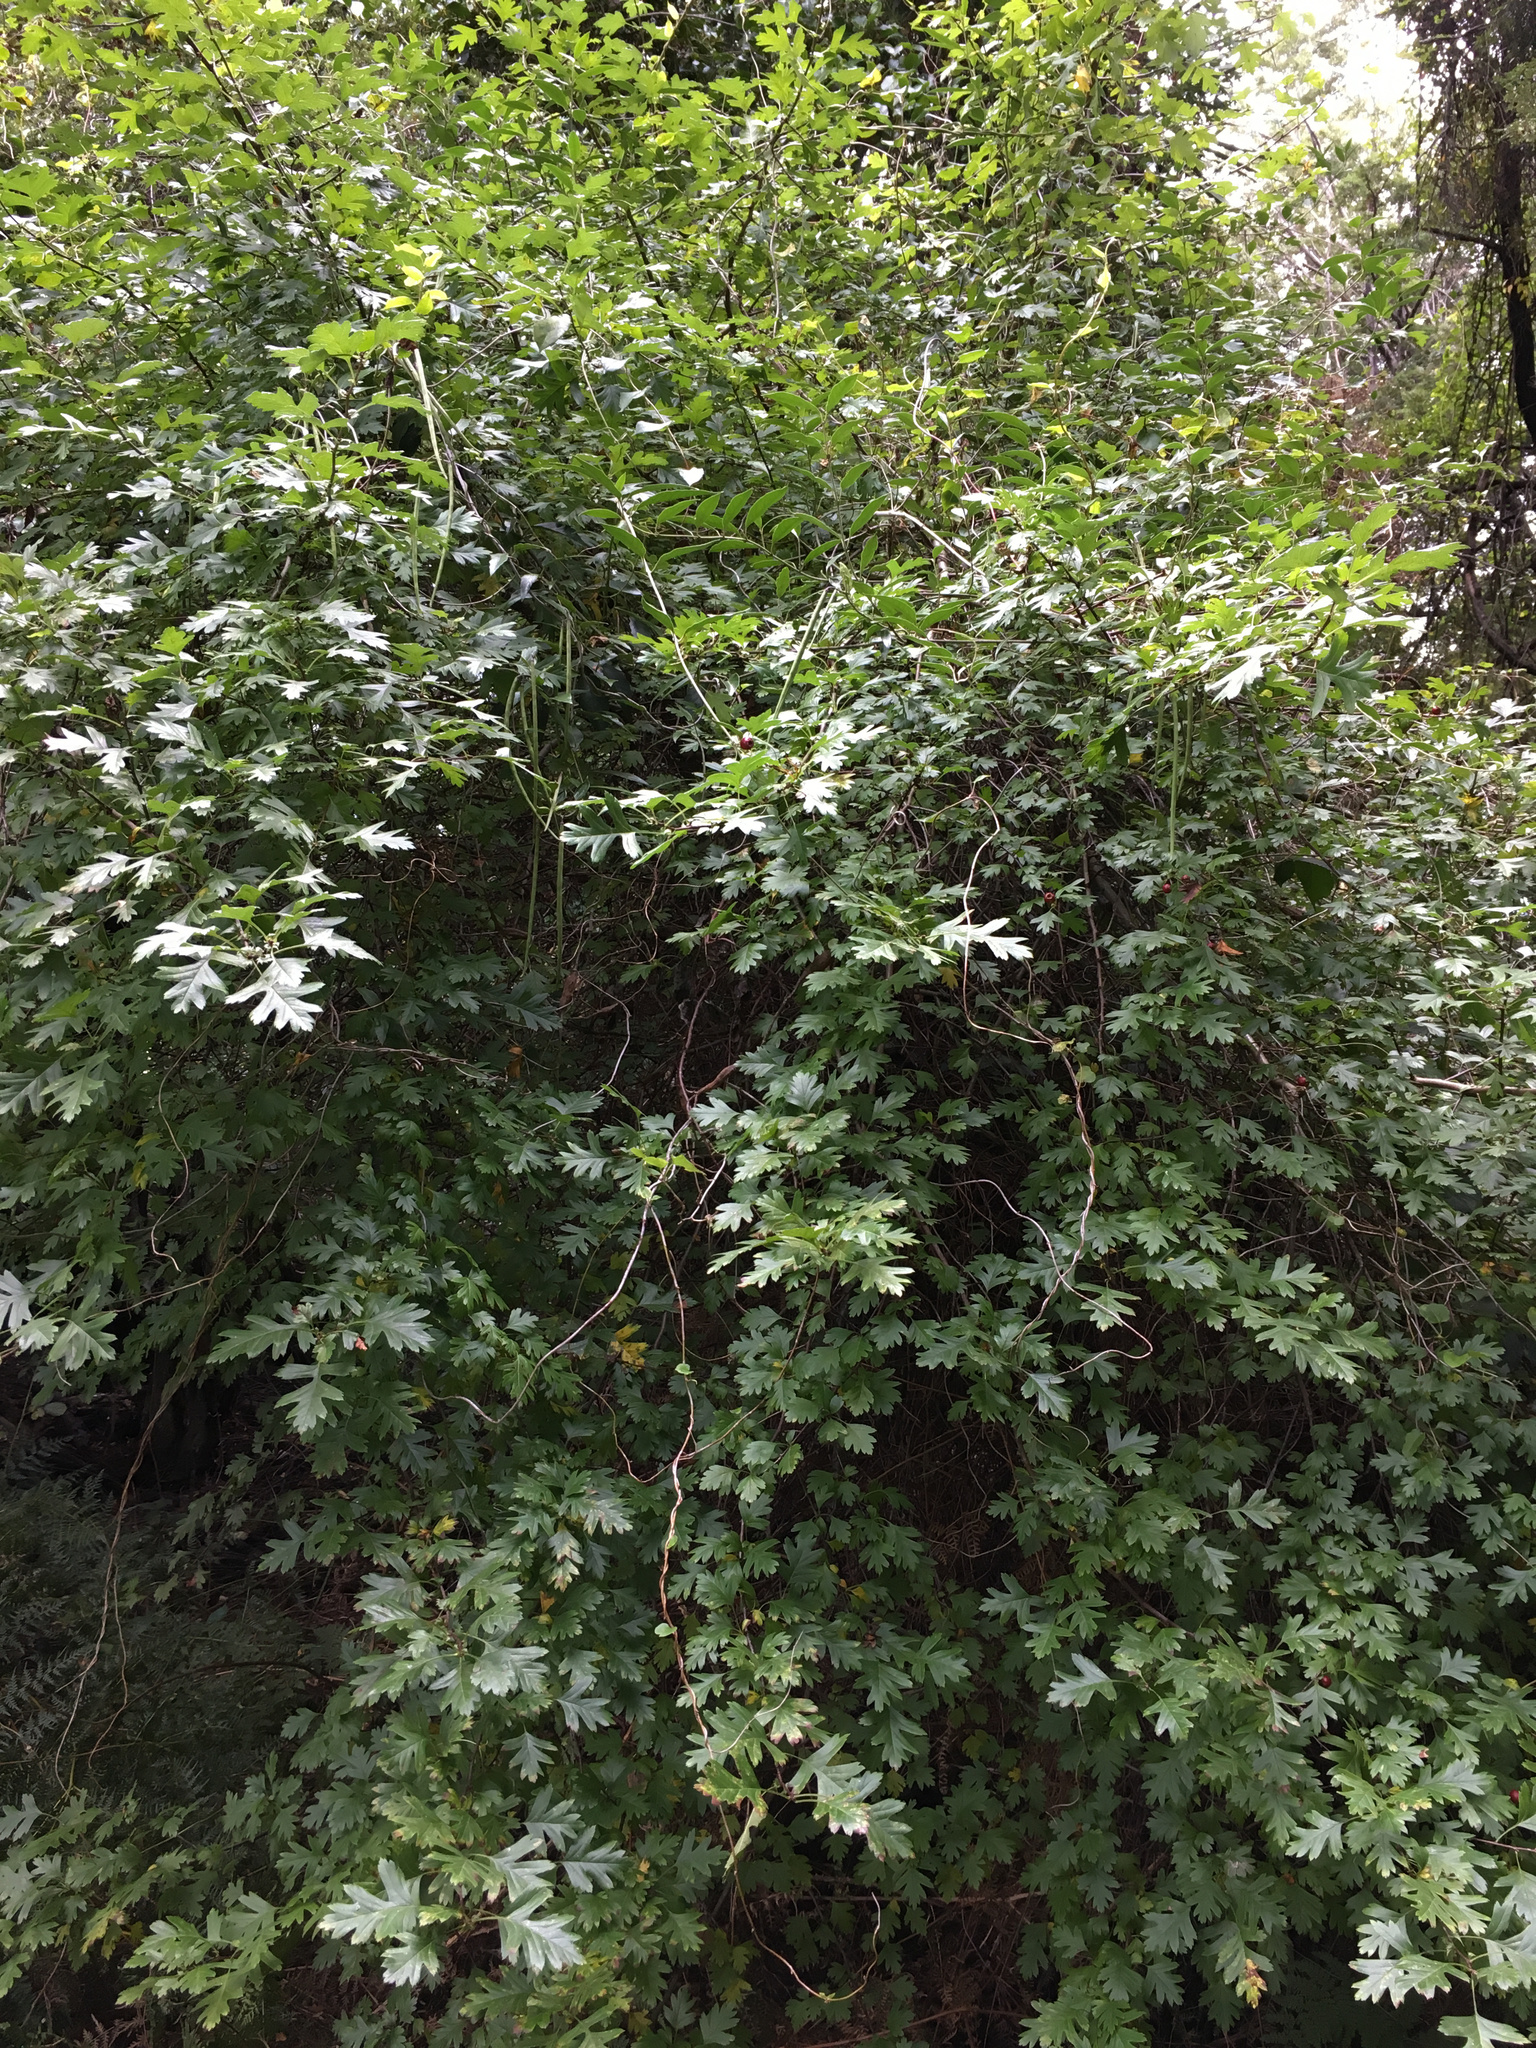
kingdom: Plantae
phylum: Tracheophyta
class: Magnoliopsida
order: Rosales
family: Rosaceae
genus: Crataegus
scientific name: Crataegus monogyna
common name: Hawthorn
